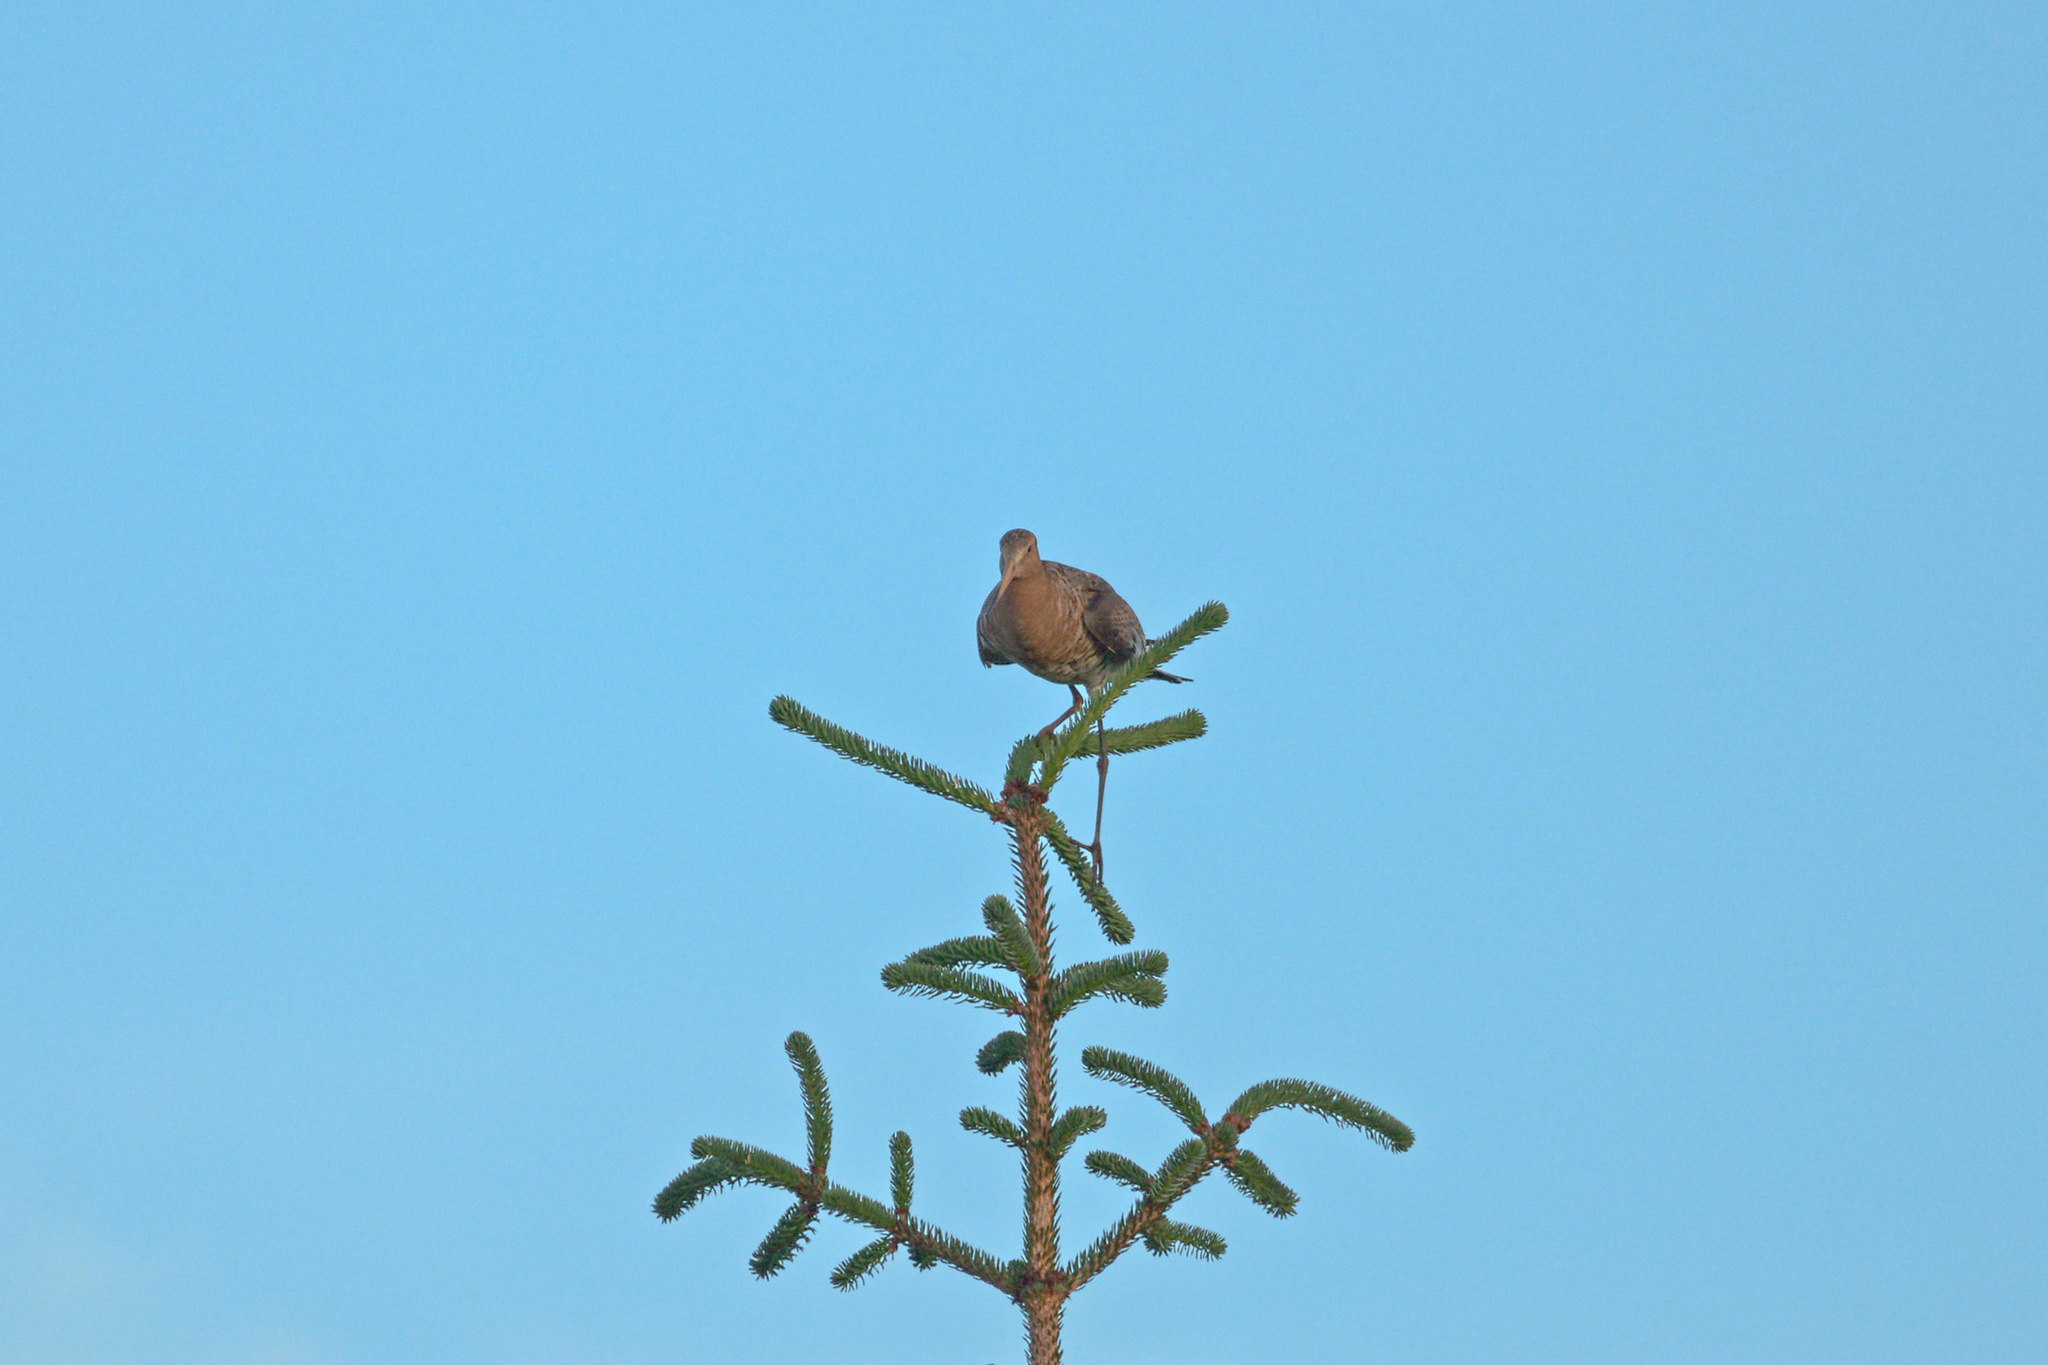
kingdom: Animalia
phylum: Chordata
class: Aves
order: Charadriiformes
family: Scolopacidae
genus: Limosa
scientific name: Limosa limosa
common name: Black-tailed godwit
